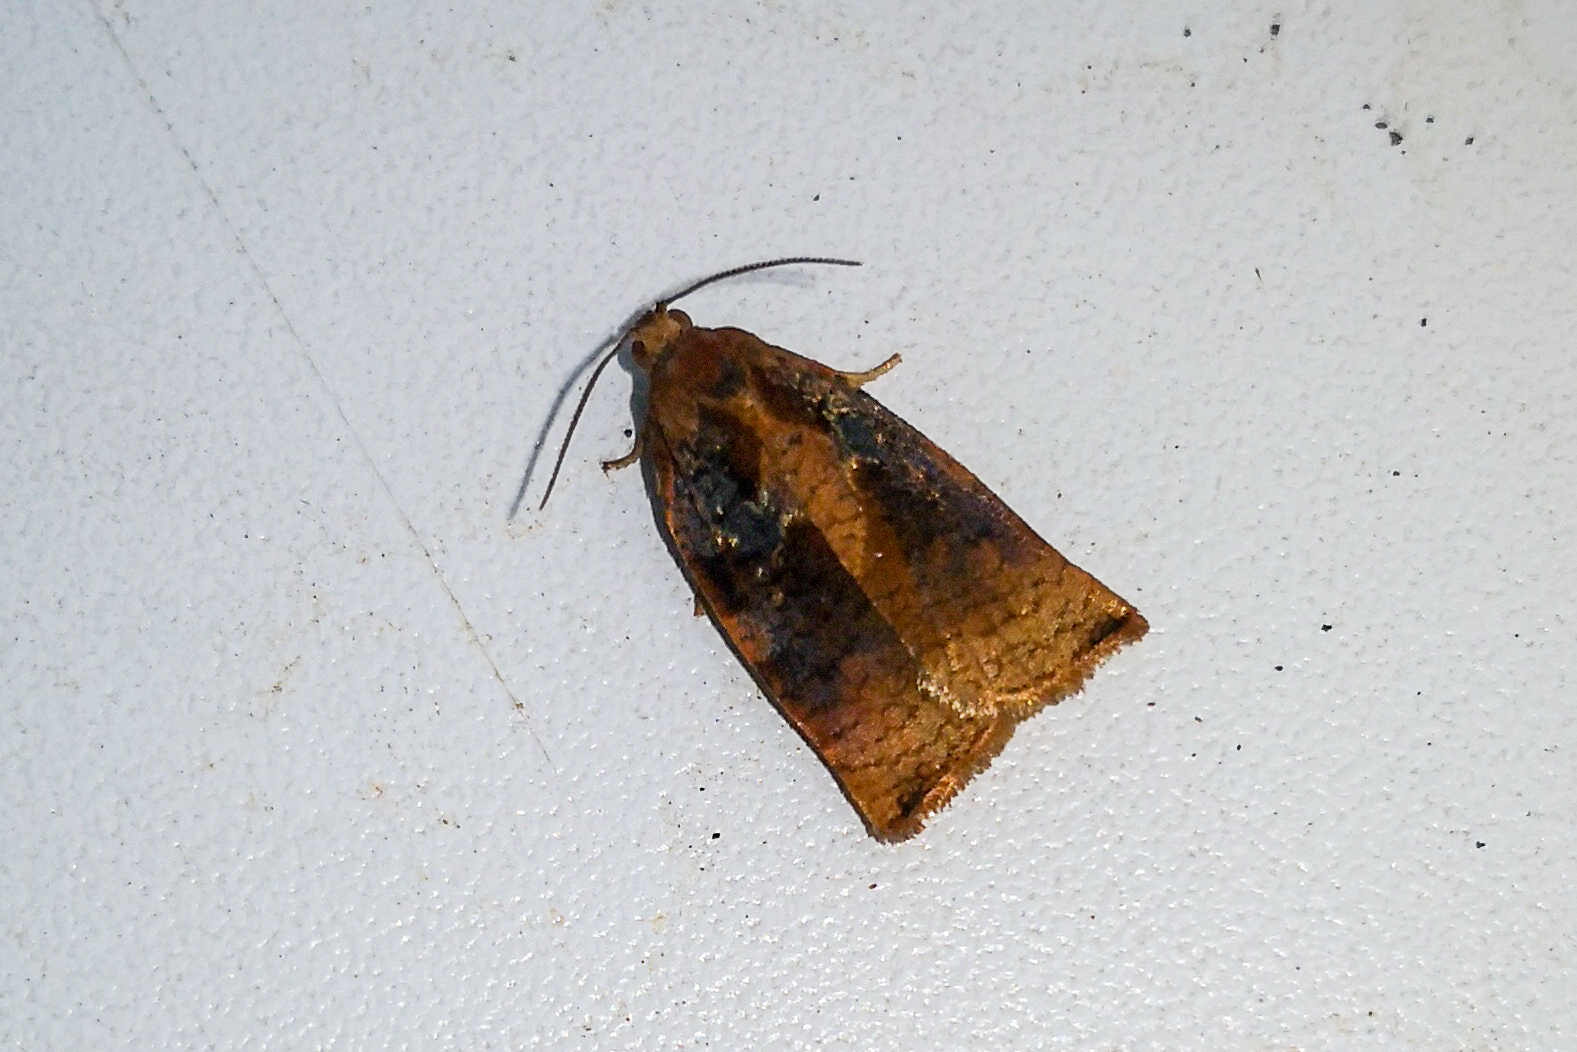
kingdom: Animalia
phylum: Arthropoda
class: Insecta
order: Lepidoptera
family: Tortricidae
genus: Archips
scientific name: Archips podana
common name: Large fruit-tree tortrix
